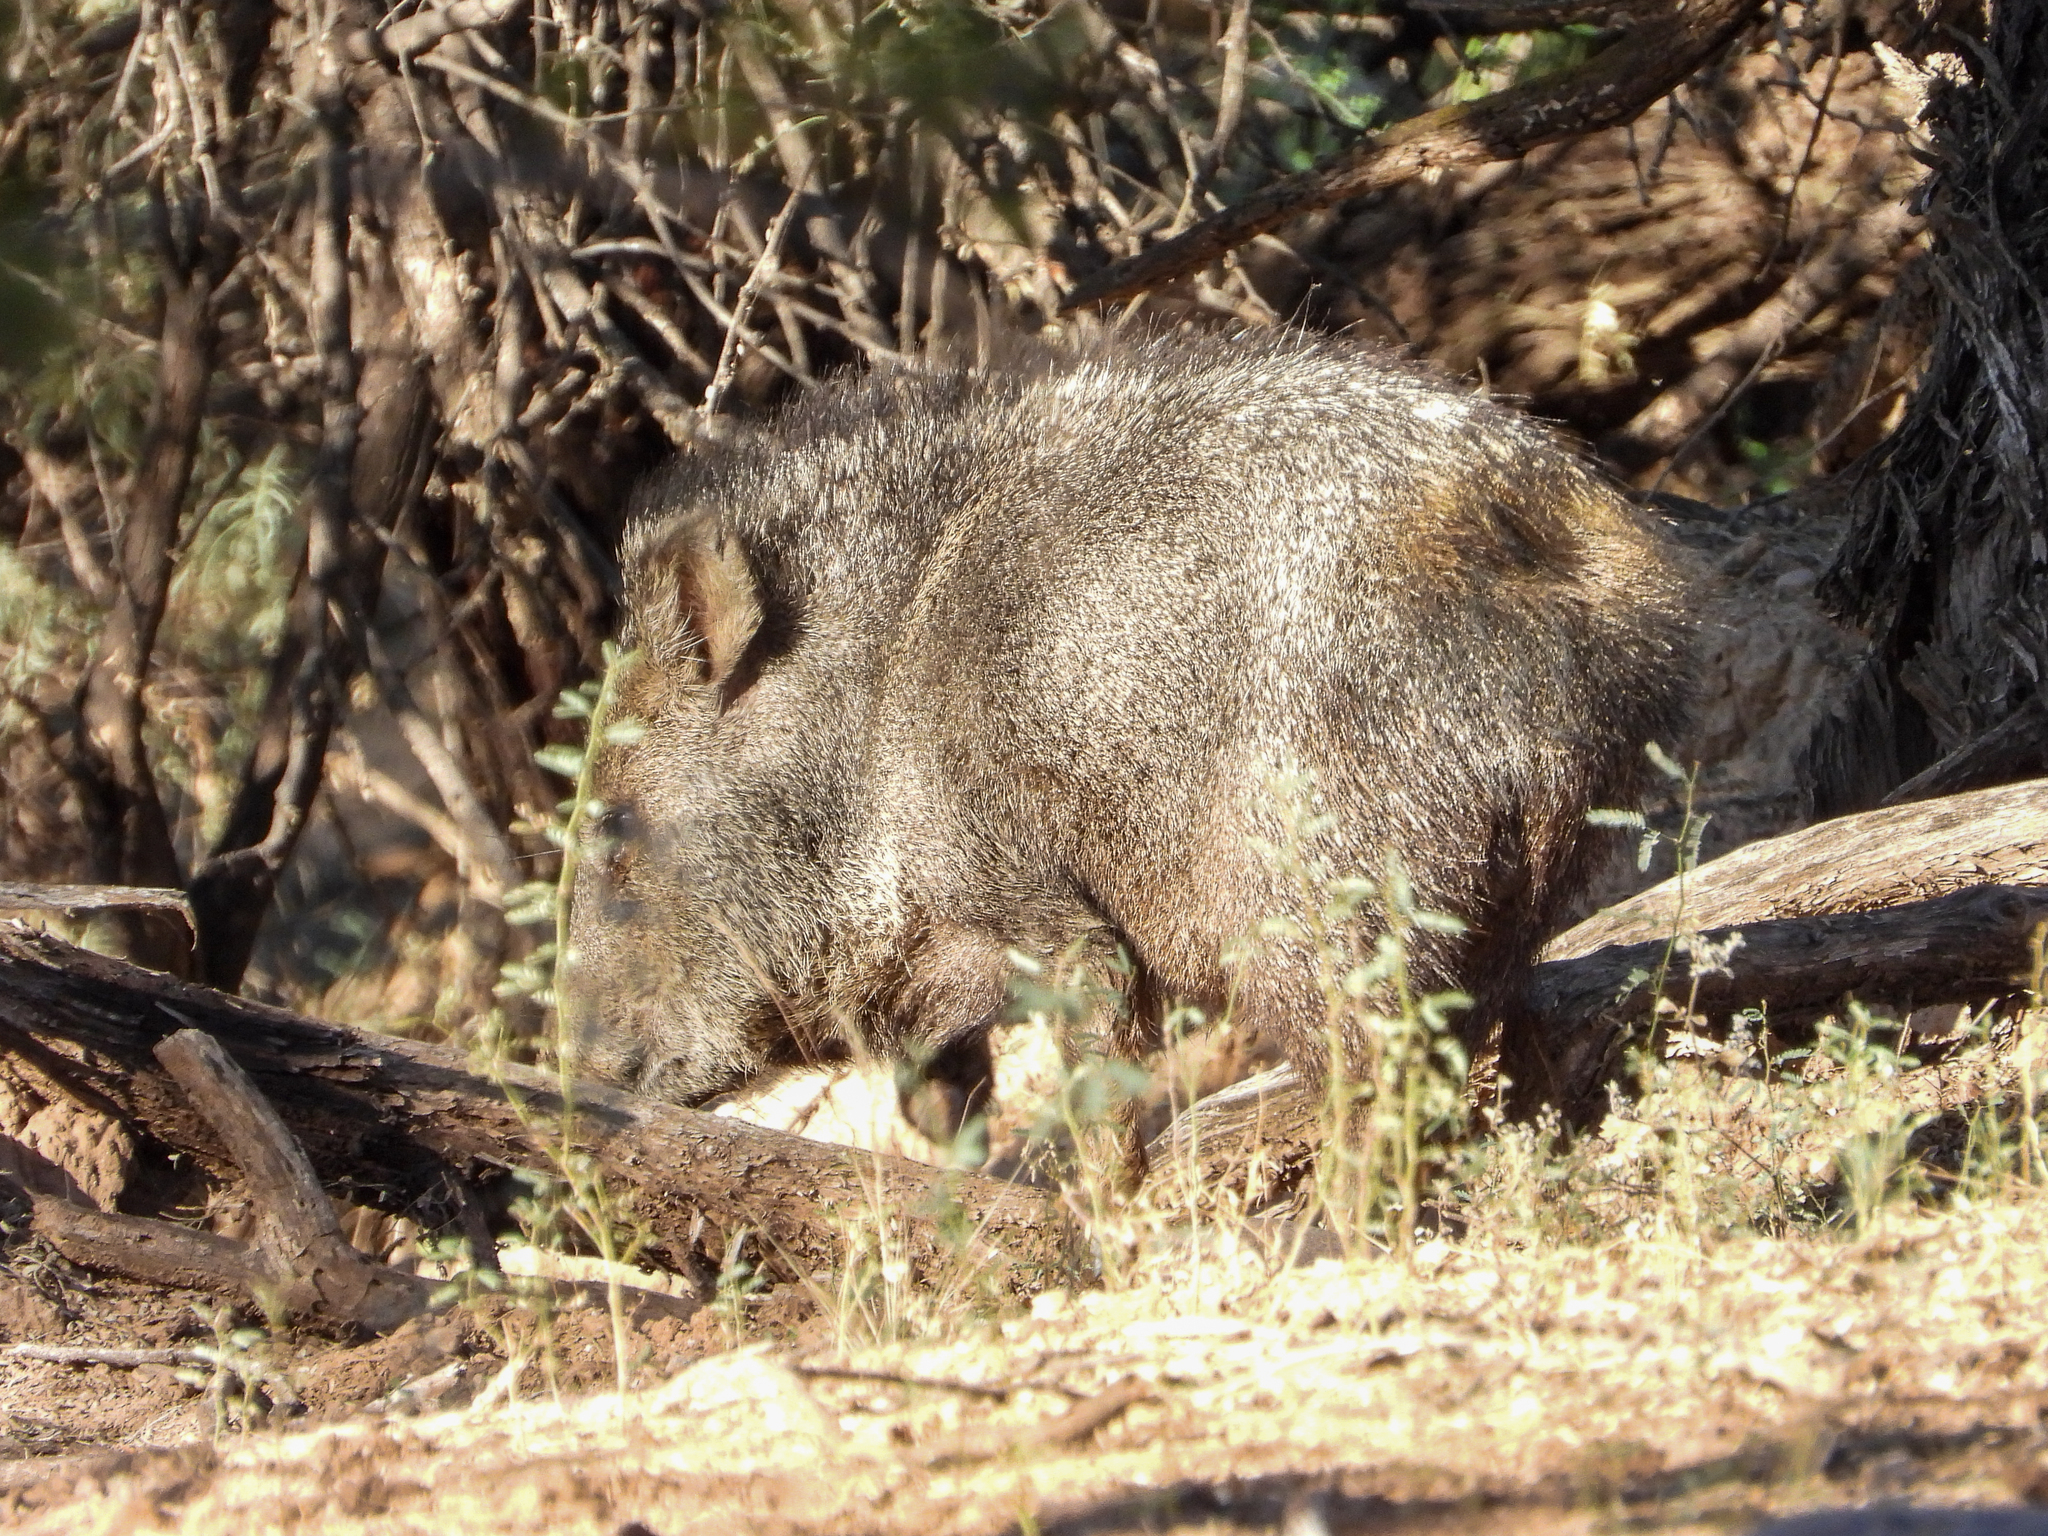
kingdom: Animalia
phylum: Chordata
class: Mammalia
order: Artiodactyla
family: Tayassuidae
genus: Pecari
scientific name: Pecari tajacu
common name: Collared peccary
